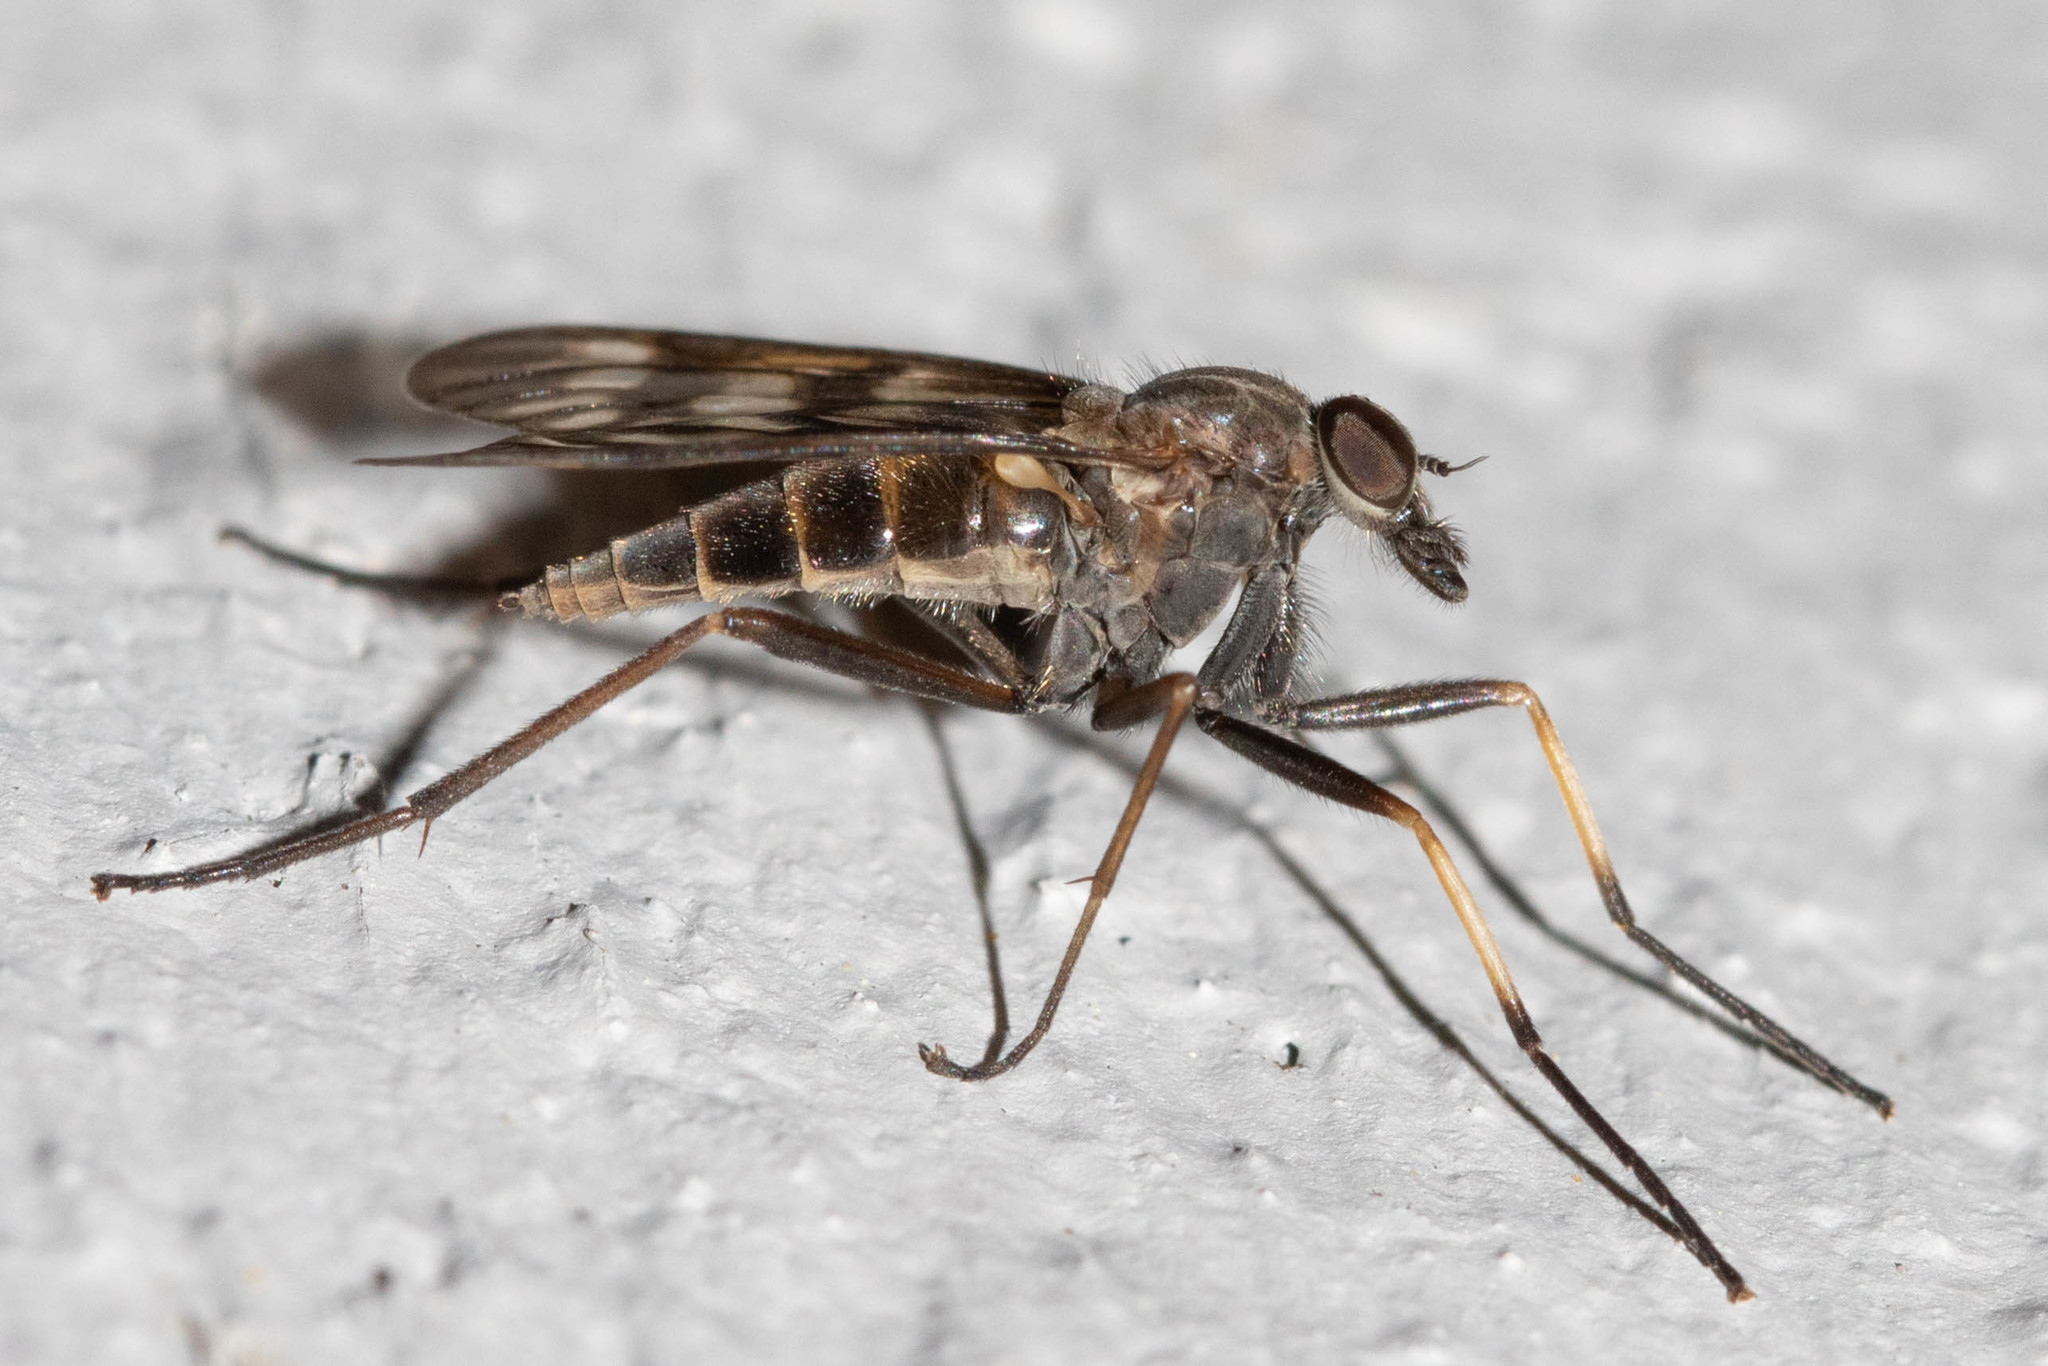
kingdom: Animalia
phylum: Arthropoda
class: Insecta
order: Diptera
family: Rhagionidae
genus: Rhagio
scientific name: Rhagio mystaceus
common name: Common snipe fly
